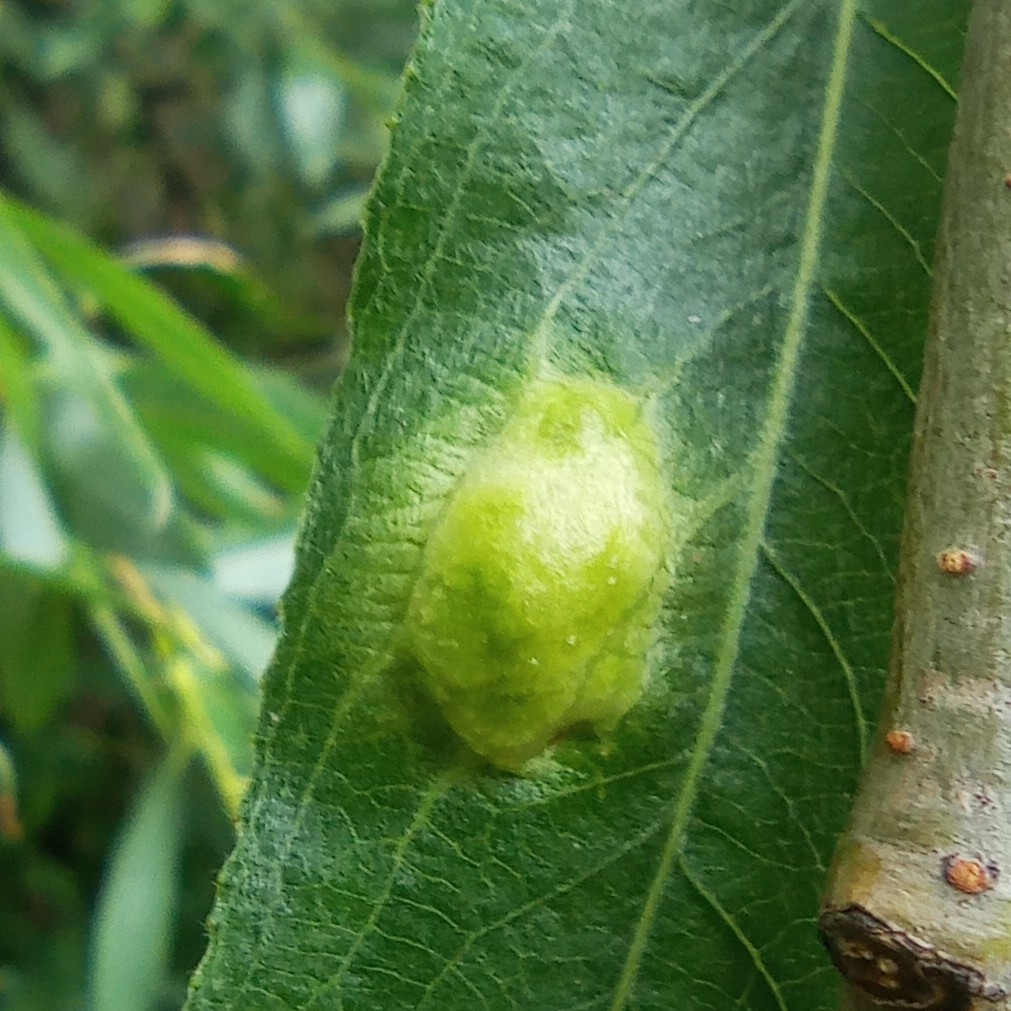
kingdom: Animalia
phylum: Arthropoda
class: Insecta
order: Hymenoptera
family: Tenthredinidae
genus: Pontania
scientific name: Pontania proxima
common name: Common sawfly
